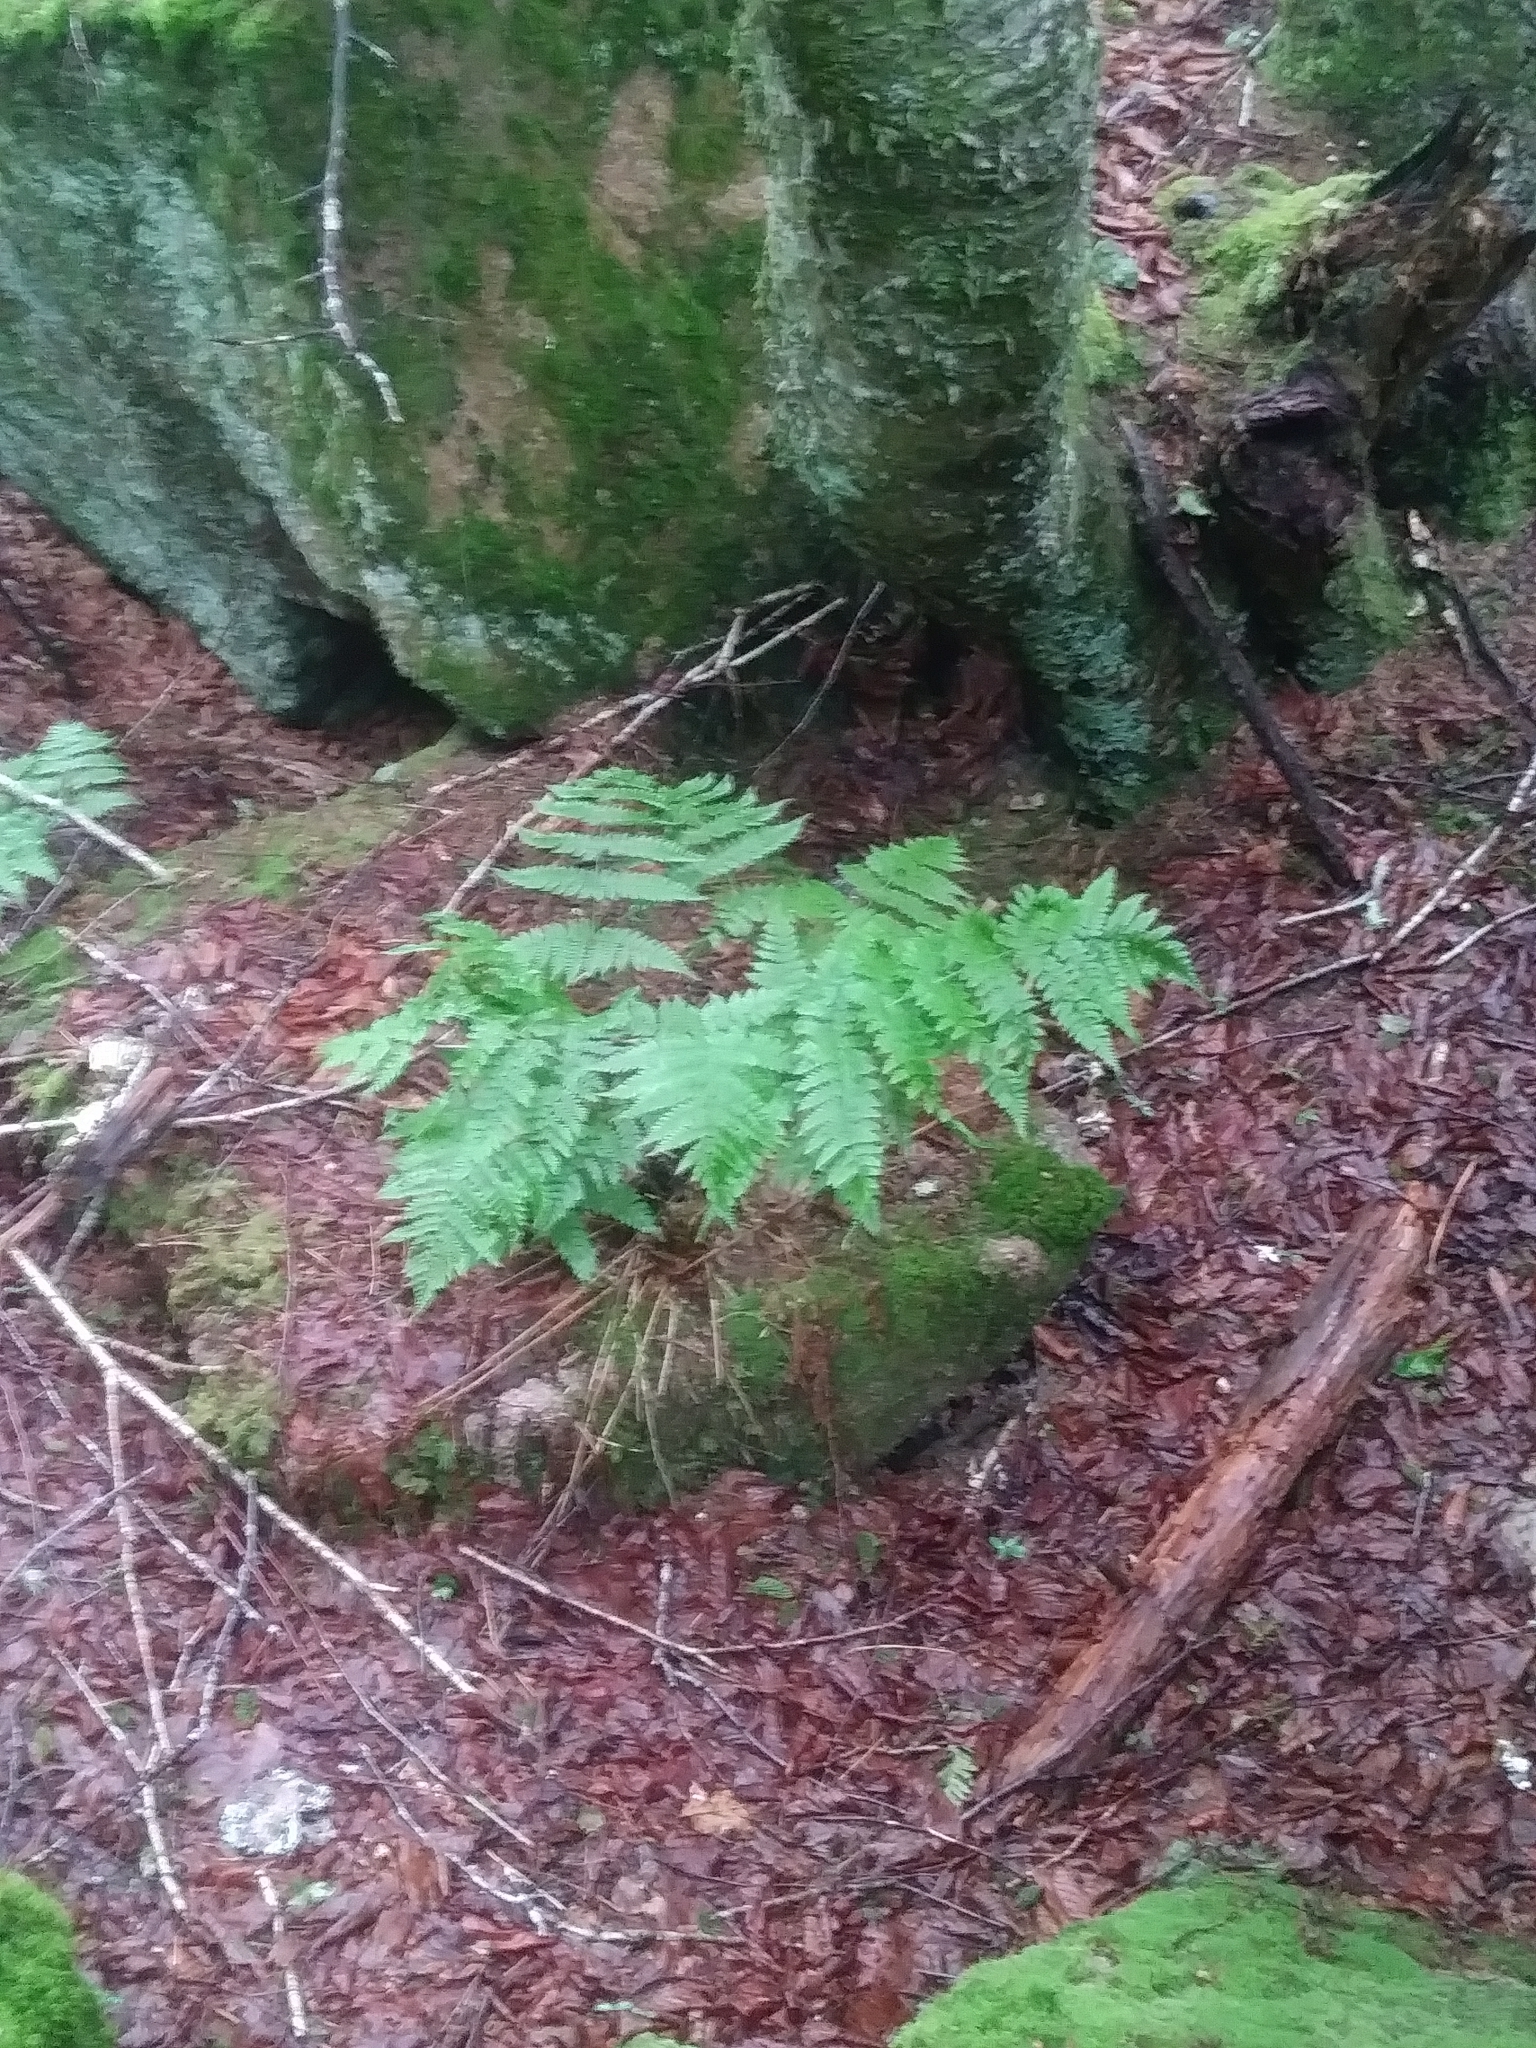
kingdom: Plantae
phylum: Tracheophyta
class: Polypodiopsida
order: Polypodiales
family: Dryopteridaceae
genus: Dryopteris
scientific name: Dryopteris campyloptera
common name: Mountain wood fern
